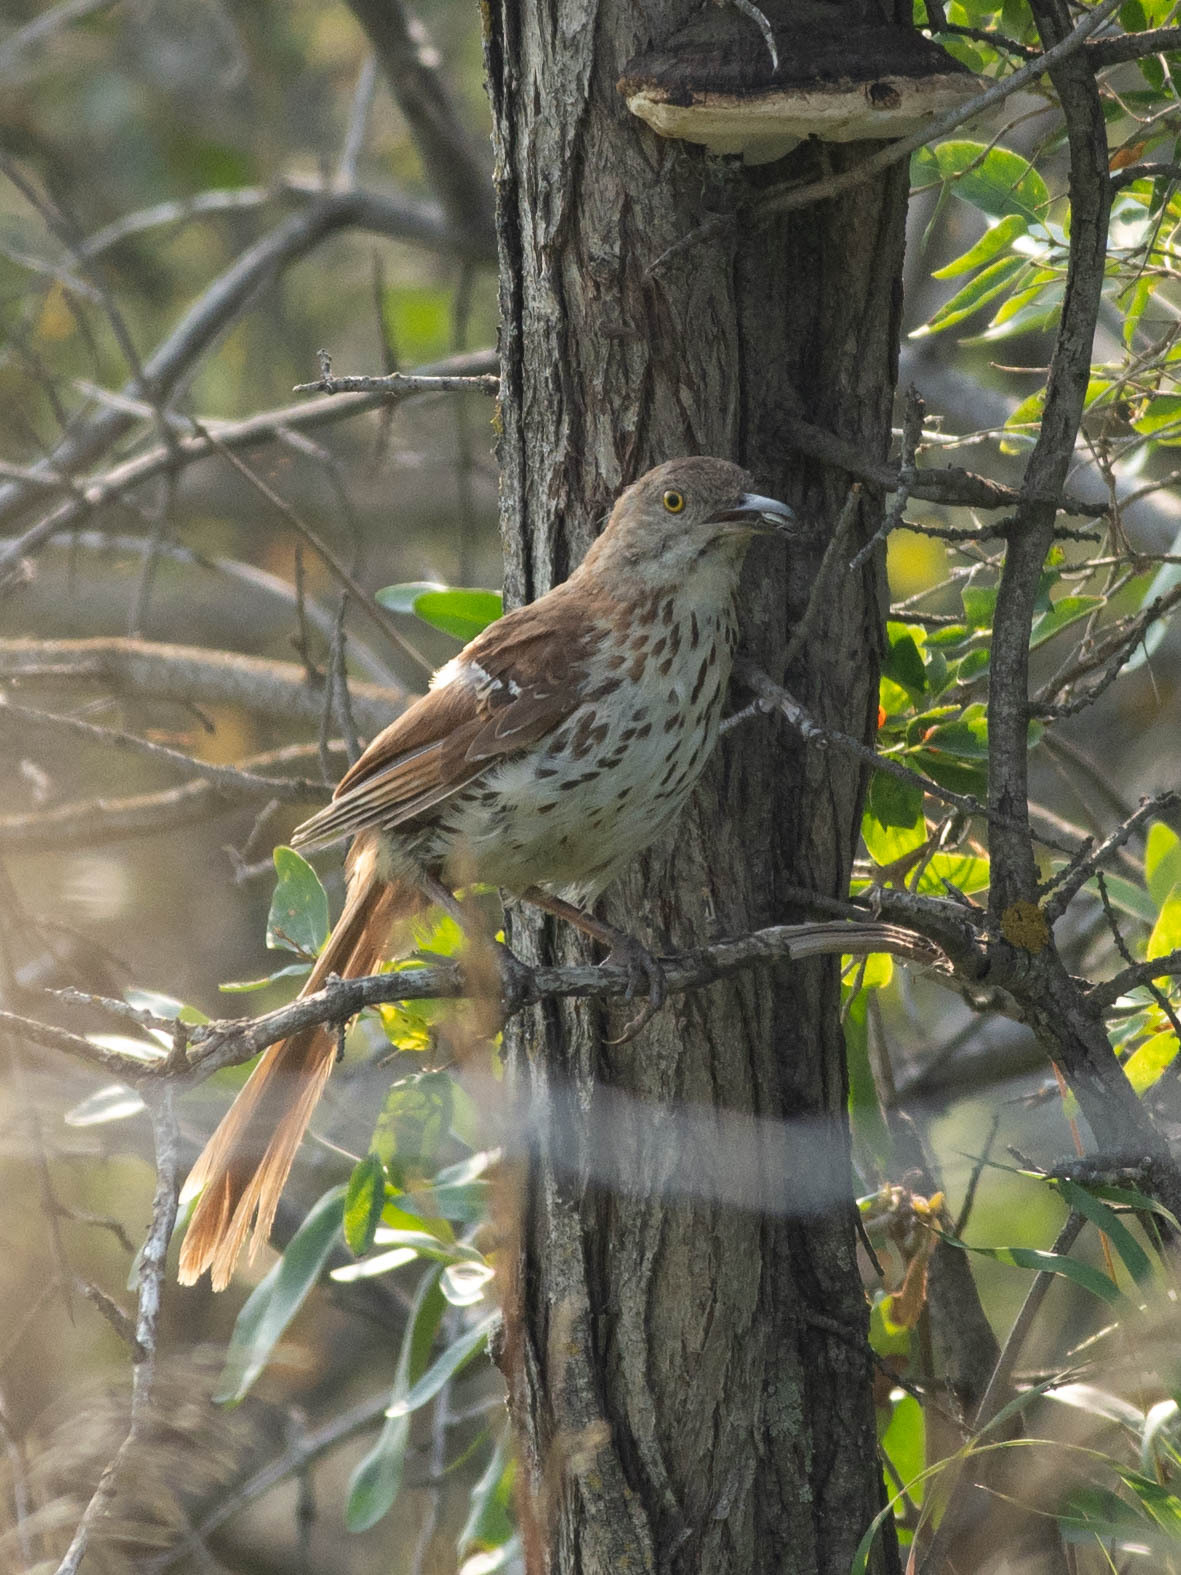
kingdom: Animalia
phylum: Chordata
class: Aves
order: Passeriformes
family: Mimidae
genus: Toxostoma
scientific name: Toxostoma rufum
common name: Brown thrasher
